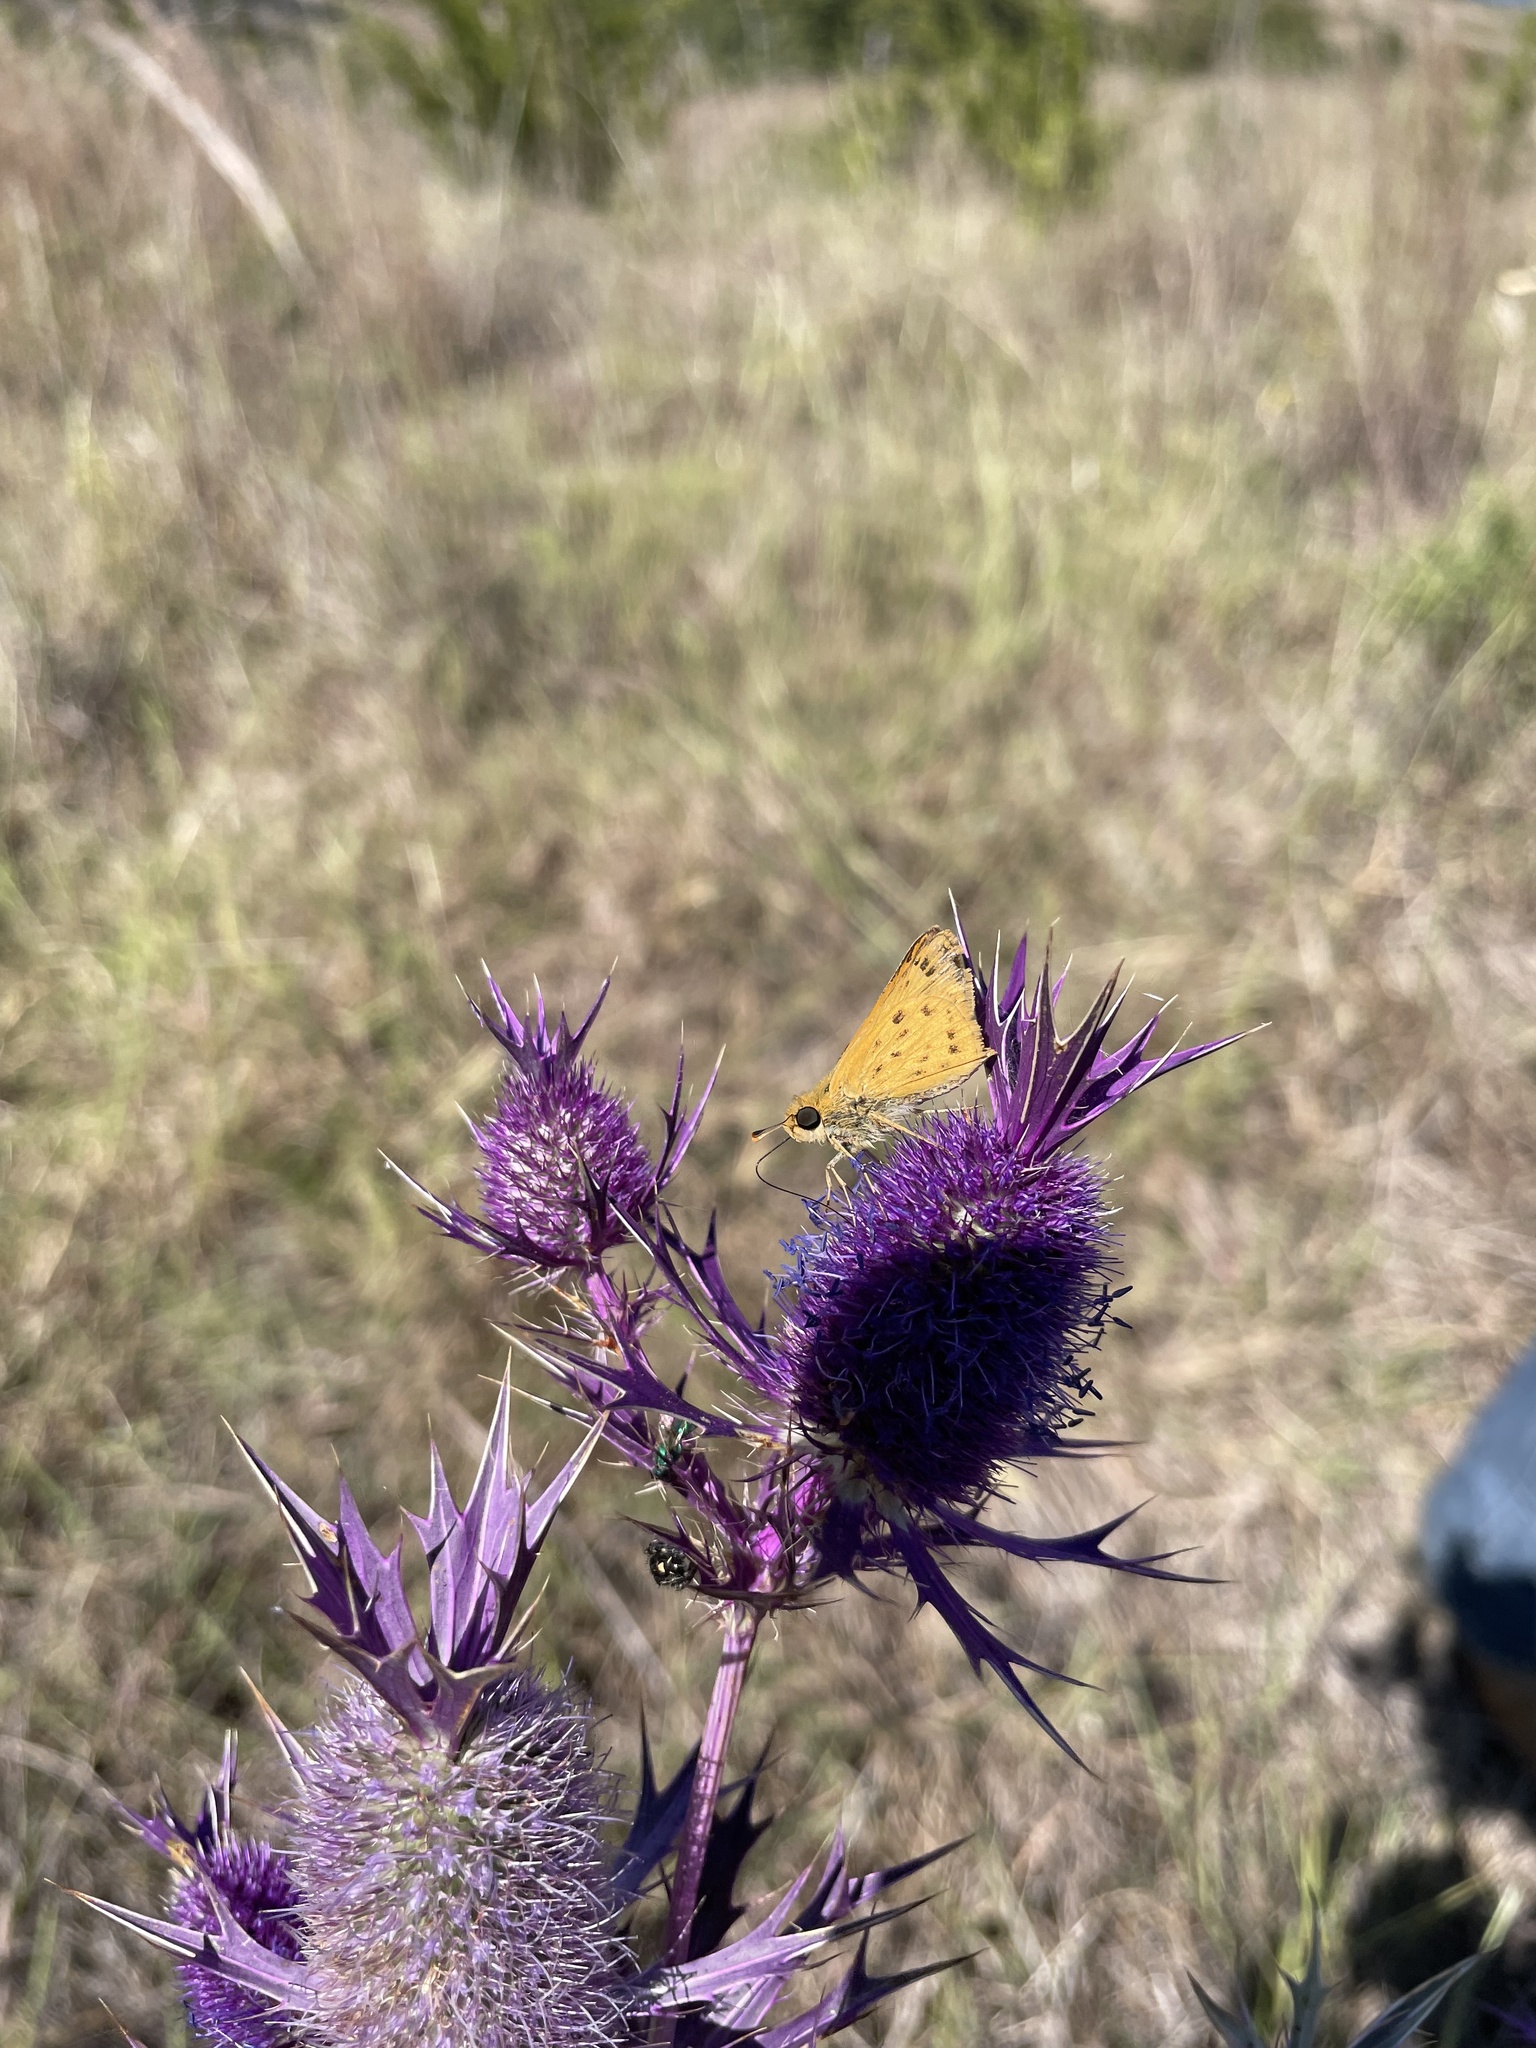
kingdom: Animalia
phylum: Arthropoda
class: Insecta
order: Lepidoptera
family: Hesperiidae
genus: Hylephila
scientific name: Hylephila phyleus
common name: Fiery skipper
